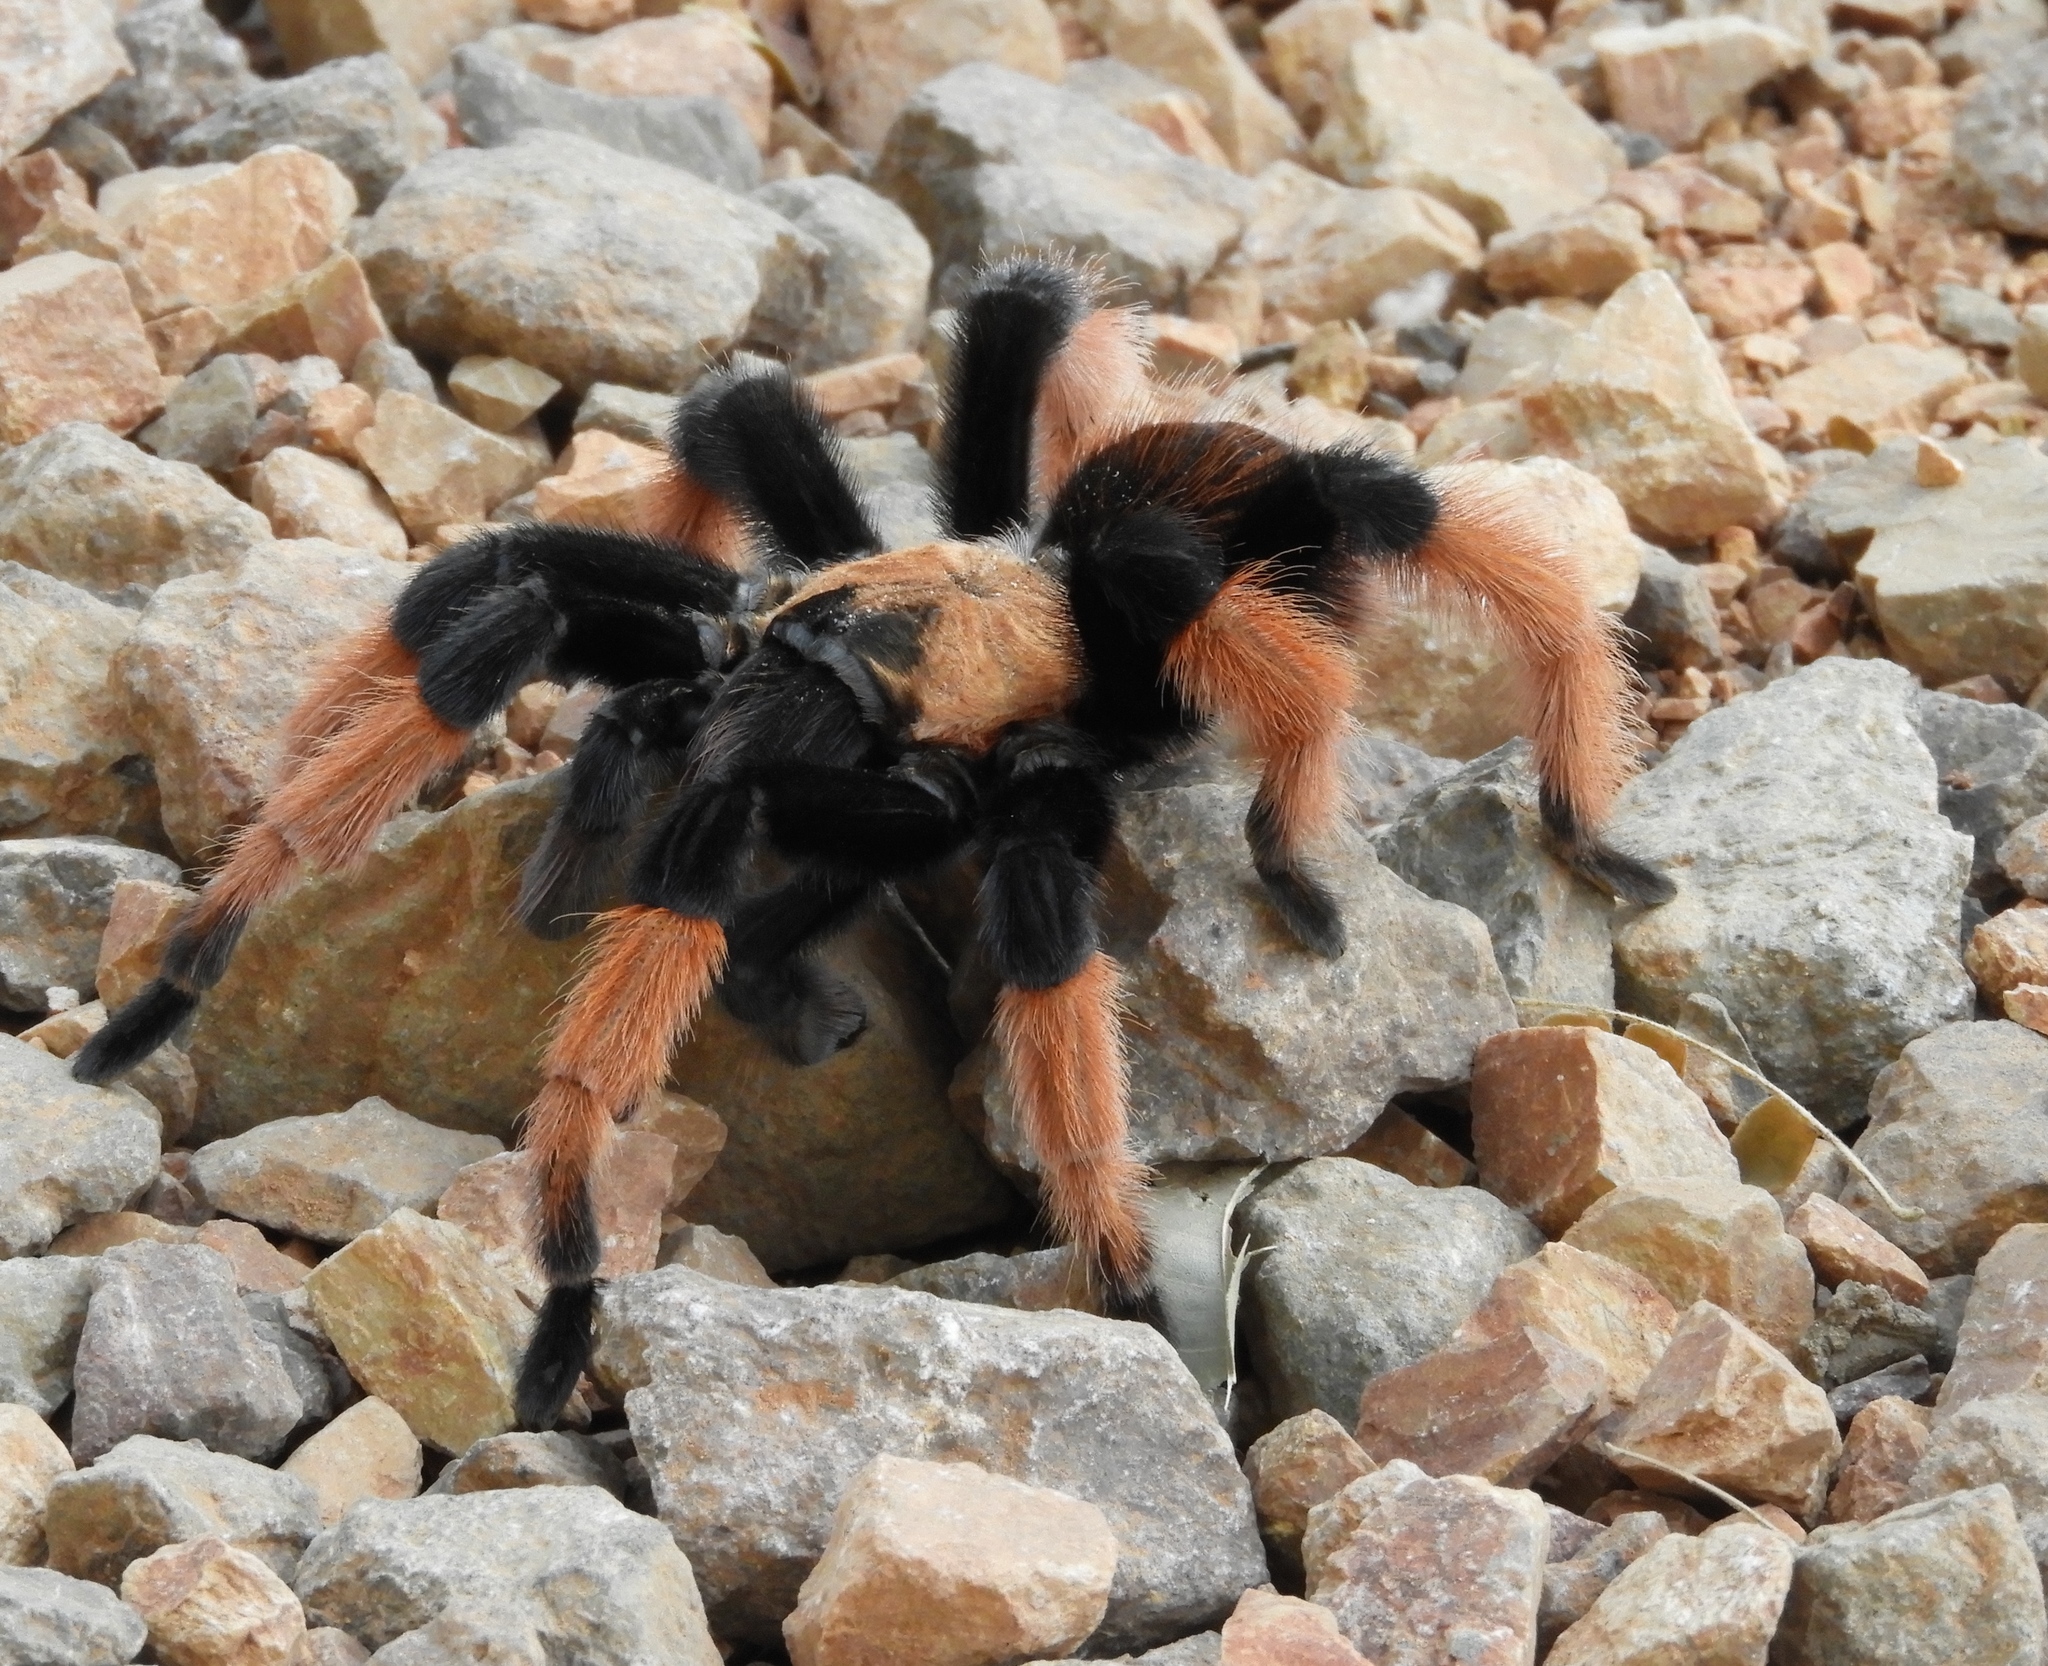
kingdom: Animalia
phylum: Arthropoda
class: Arachnida
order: Araneae
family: Theraphosidae
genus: Brachypelma
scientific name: Brachypelma emilia
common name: Mexican redleg
